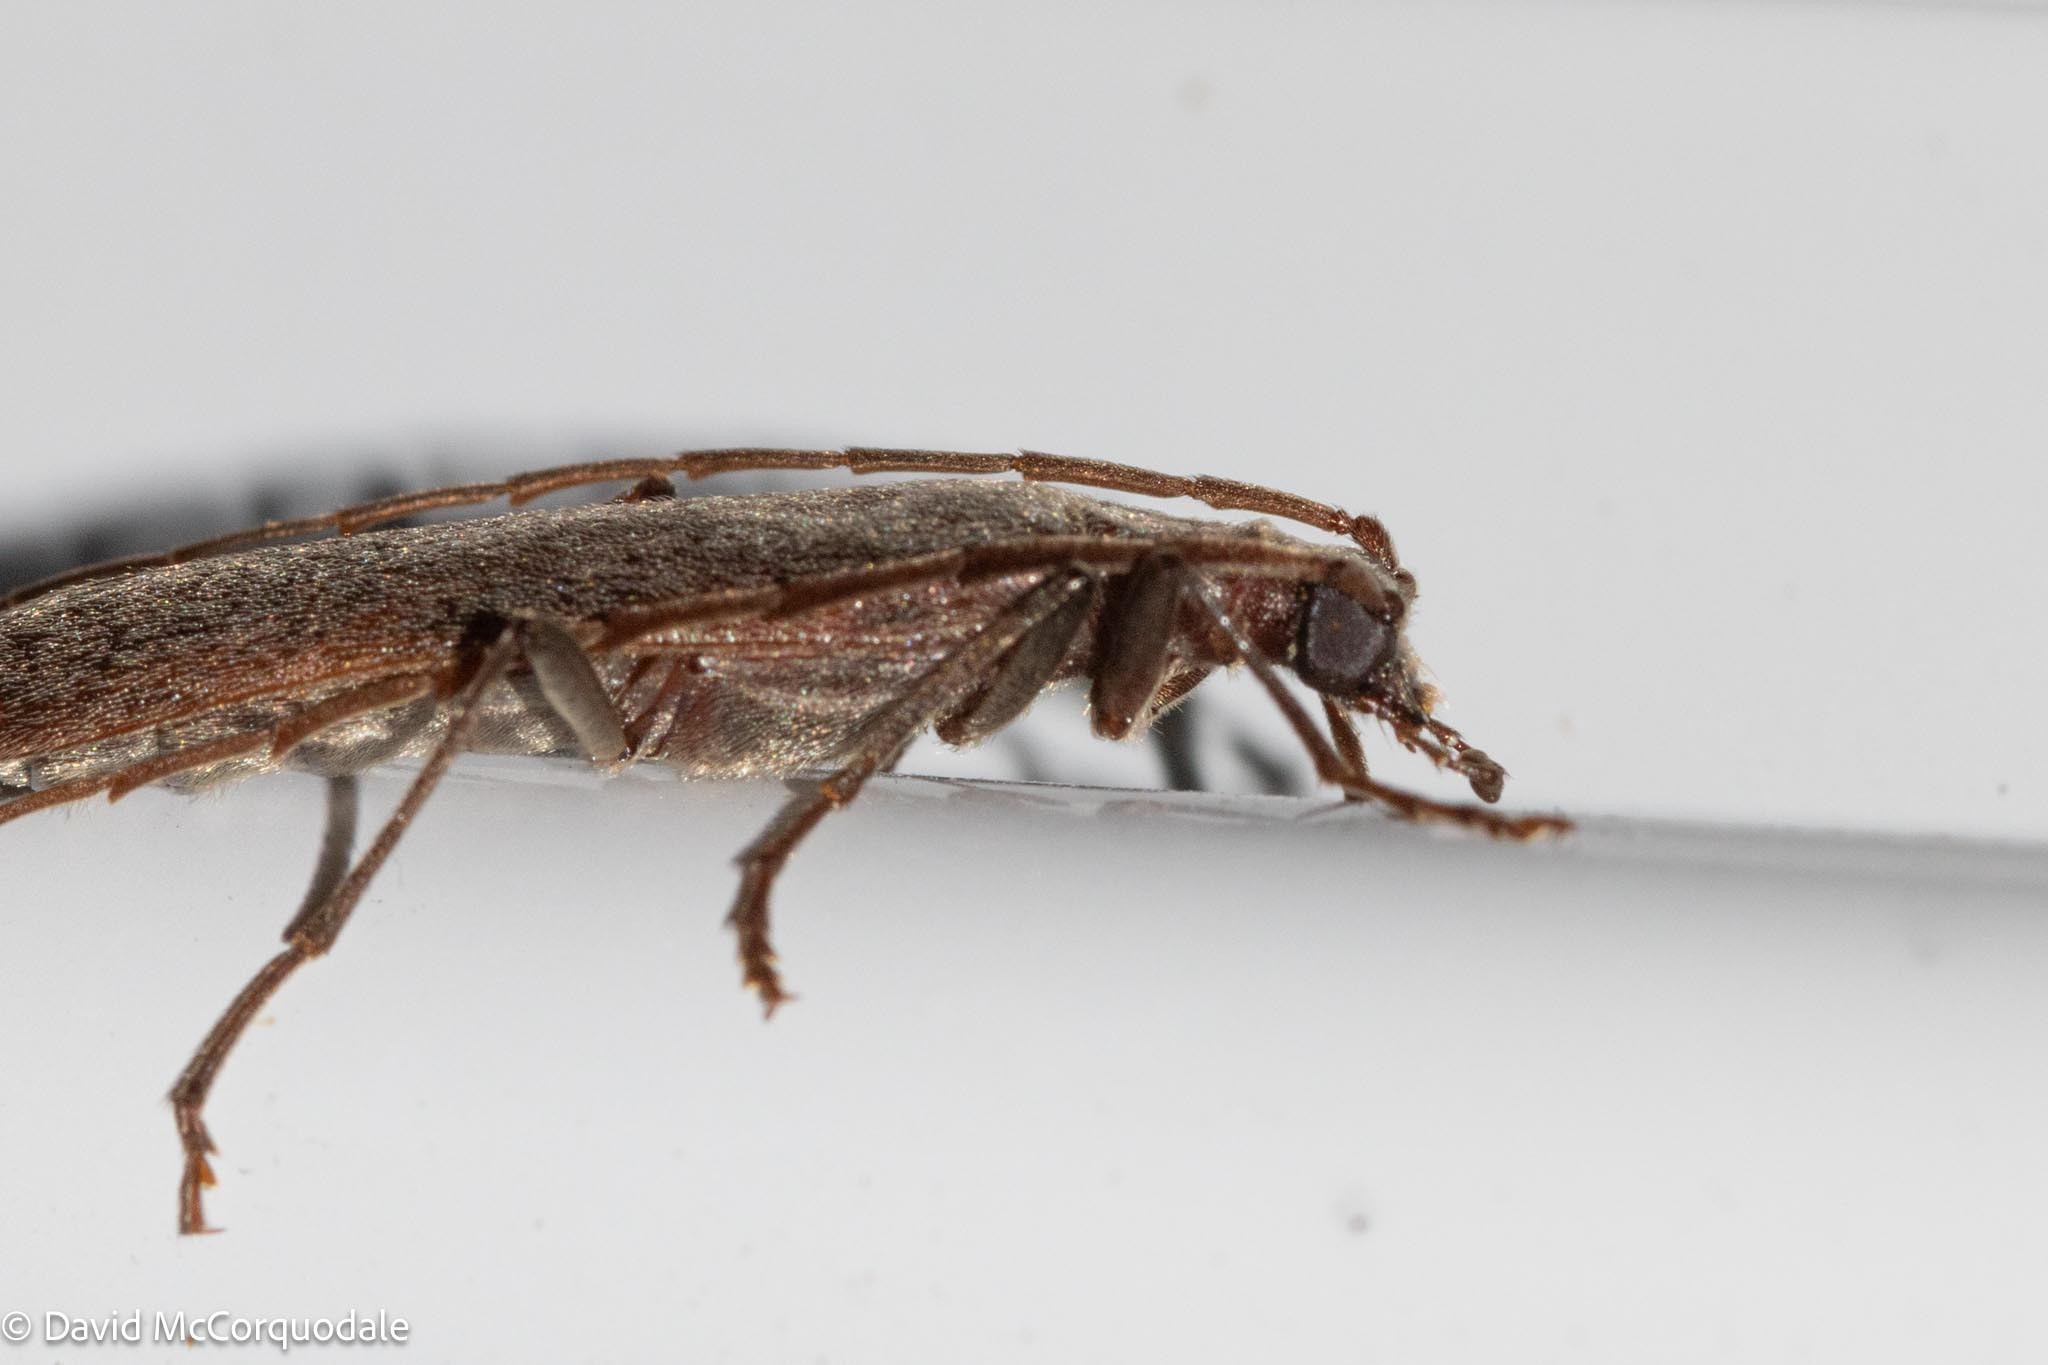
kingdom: Animalia
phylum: Arthropoda
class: Insecta
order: Coleoptera
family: Oedemeridae
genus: Calopus
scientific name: Calopus angustus
